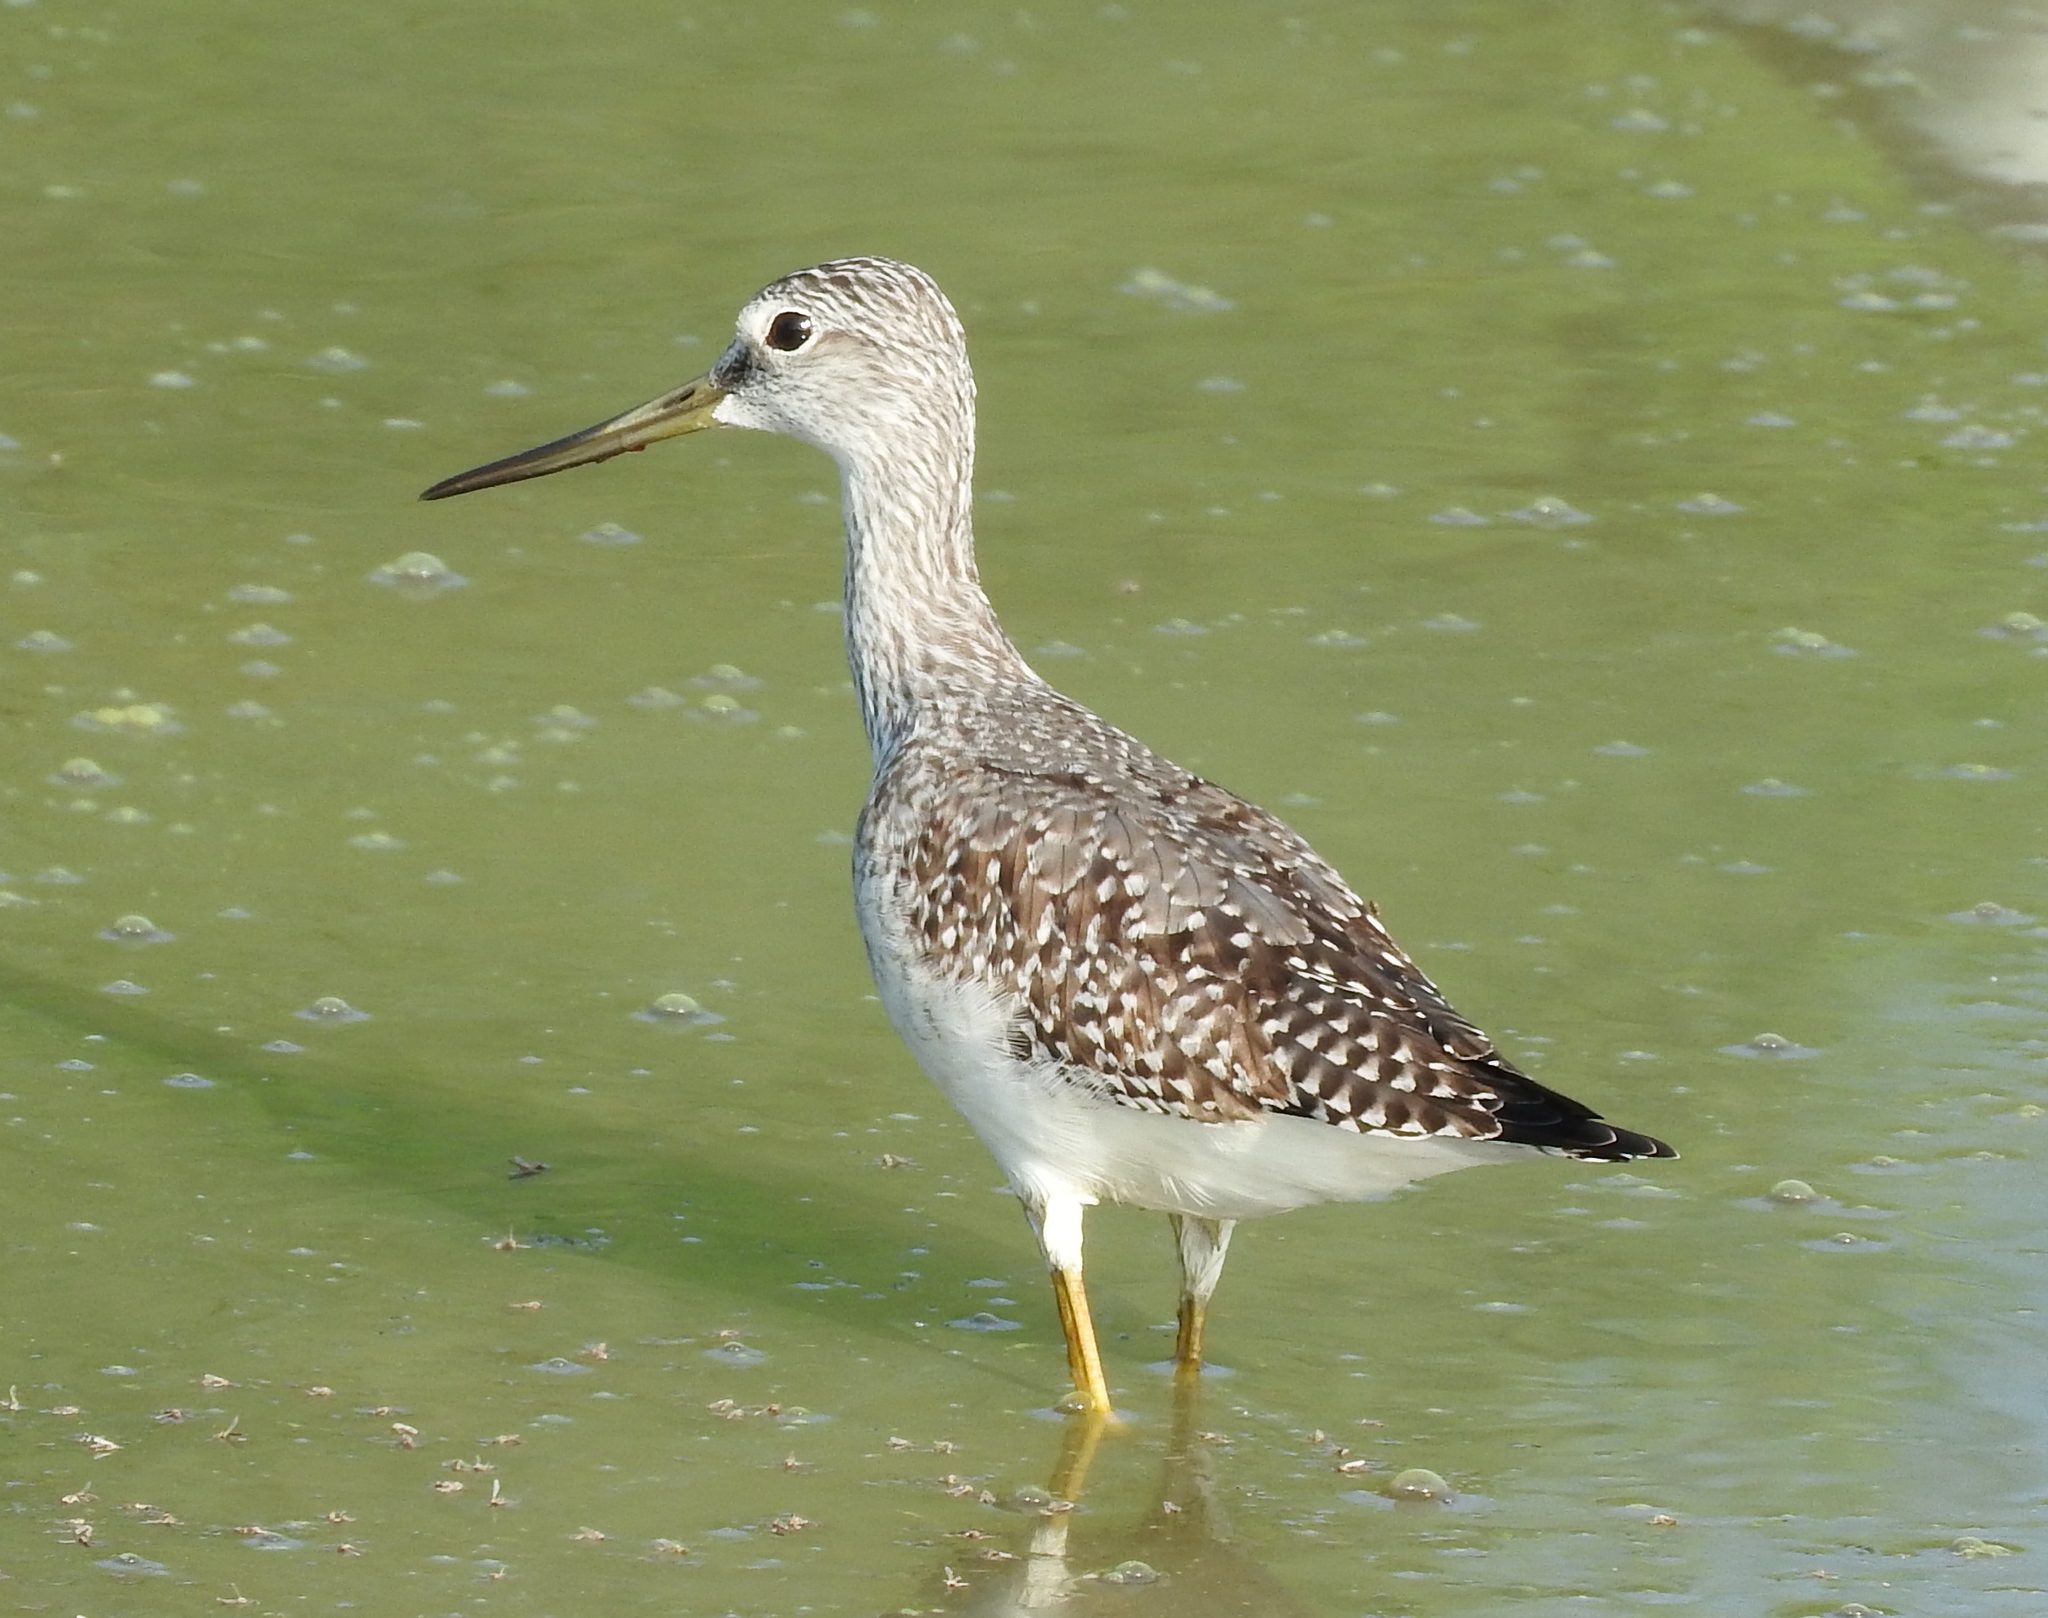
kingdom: Animalia
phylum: Chordata
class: Aves
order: Charadriiformes
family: Scolopacidae
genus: Tringa
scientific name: Tringa melanoleuca
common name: Greater yellowlegs
